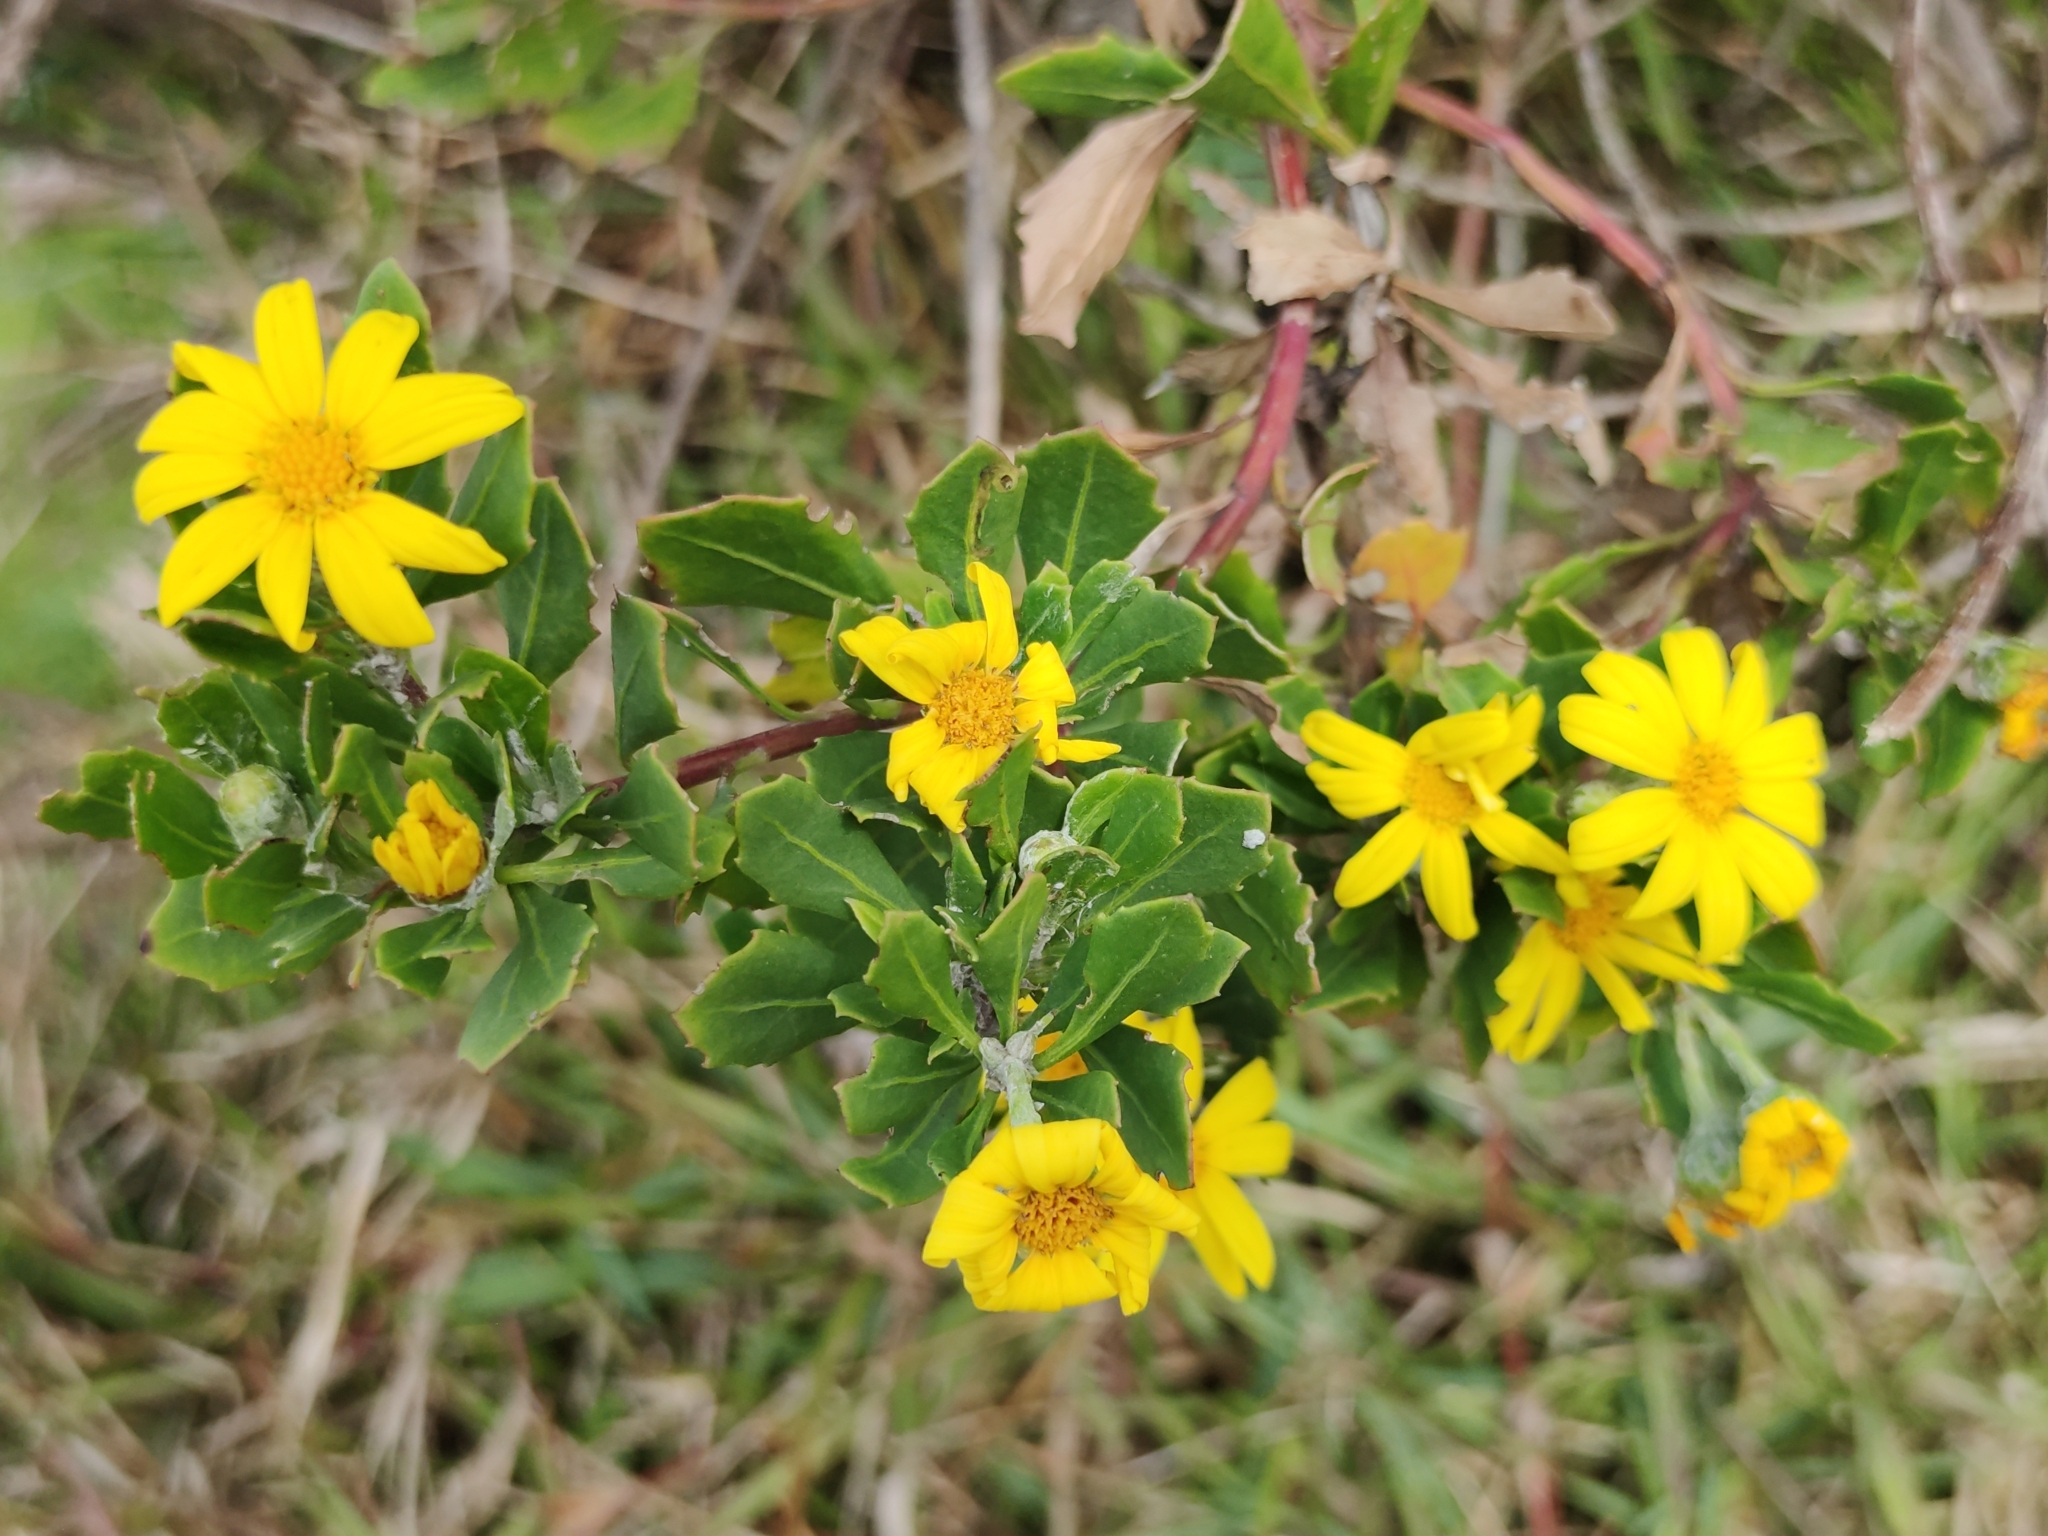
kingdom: Plantae
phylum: Tracheophyta
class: Magnoliopsida
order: Asterales
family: Asteraceae
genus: Osteospermum
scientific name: Osteospermum moniliferum
